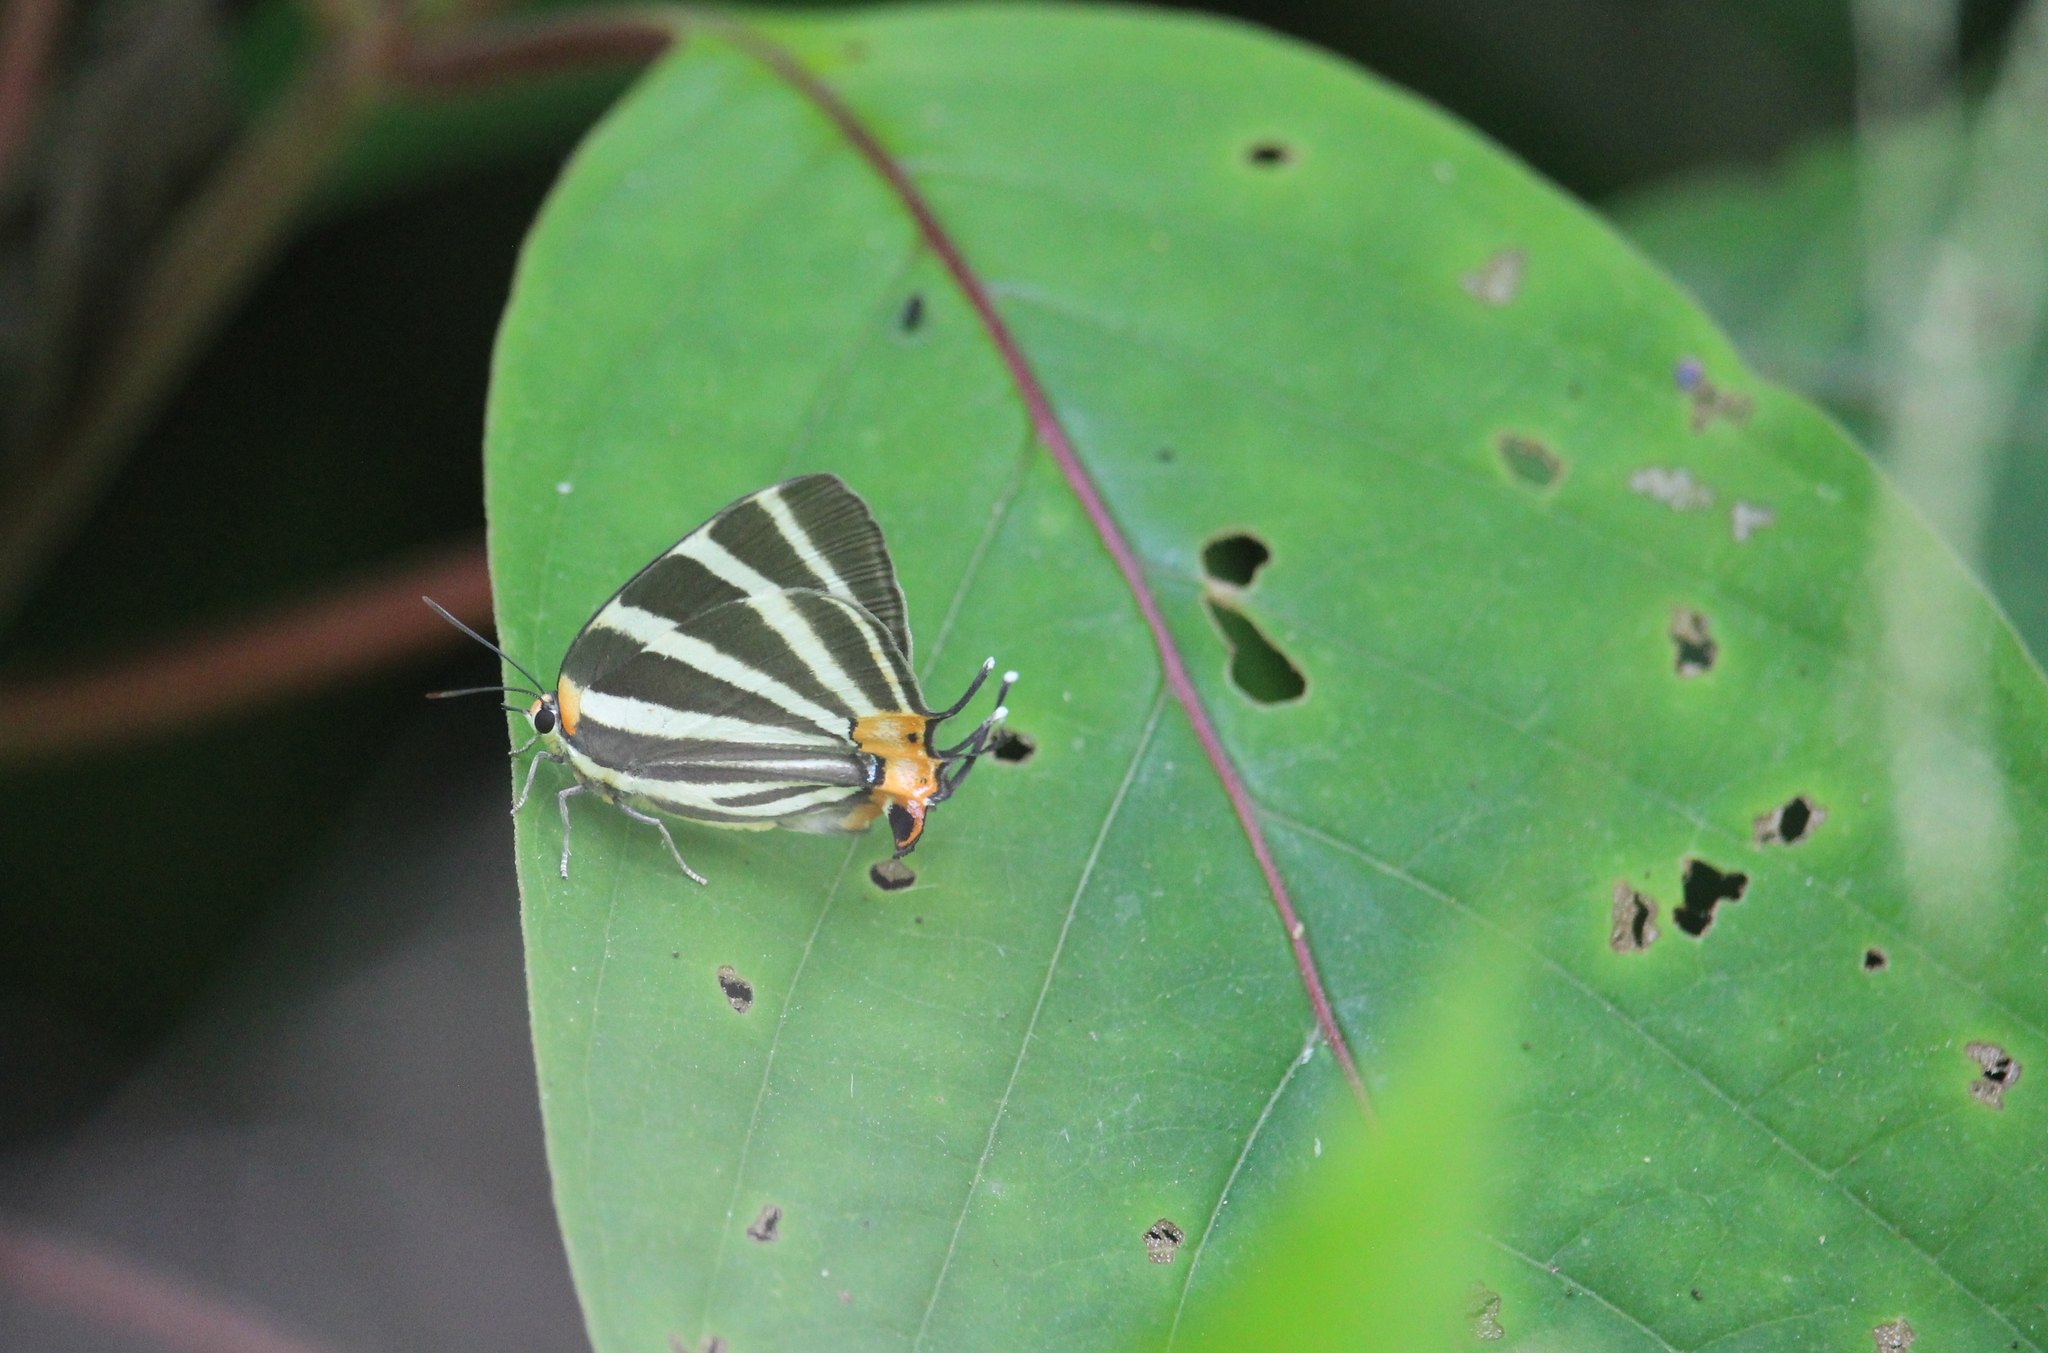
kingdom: Animalia
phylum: Arthropoda
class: Insecta
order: Lepidoptera
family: Lycaenidae
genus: Thecla
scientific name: Thecla bathildis
